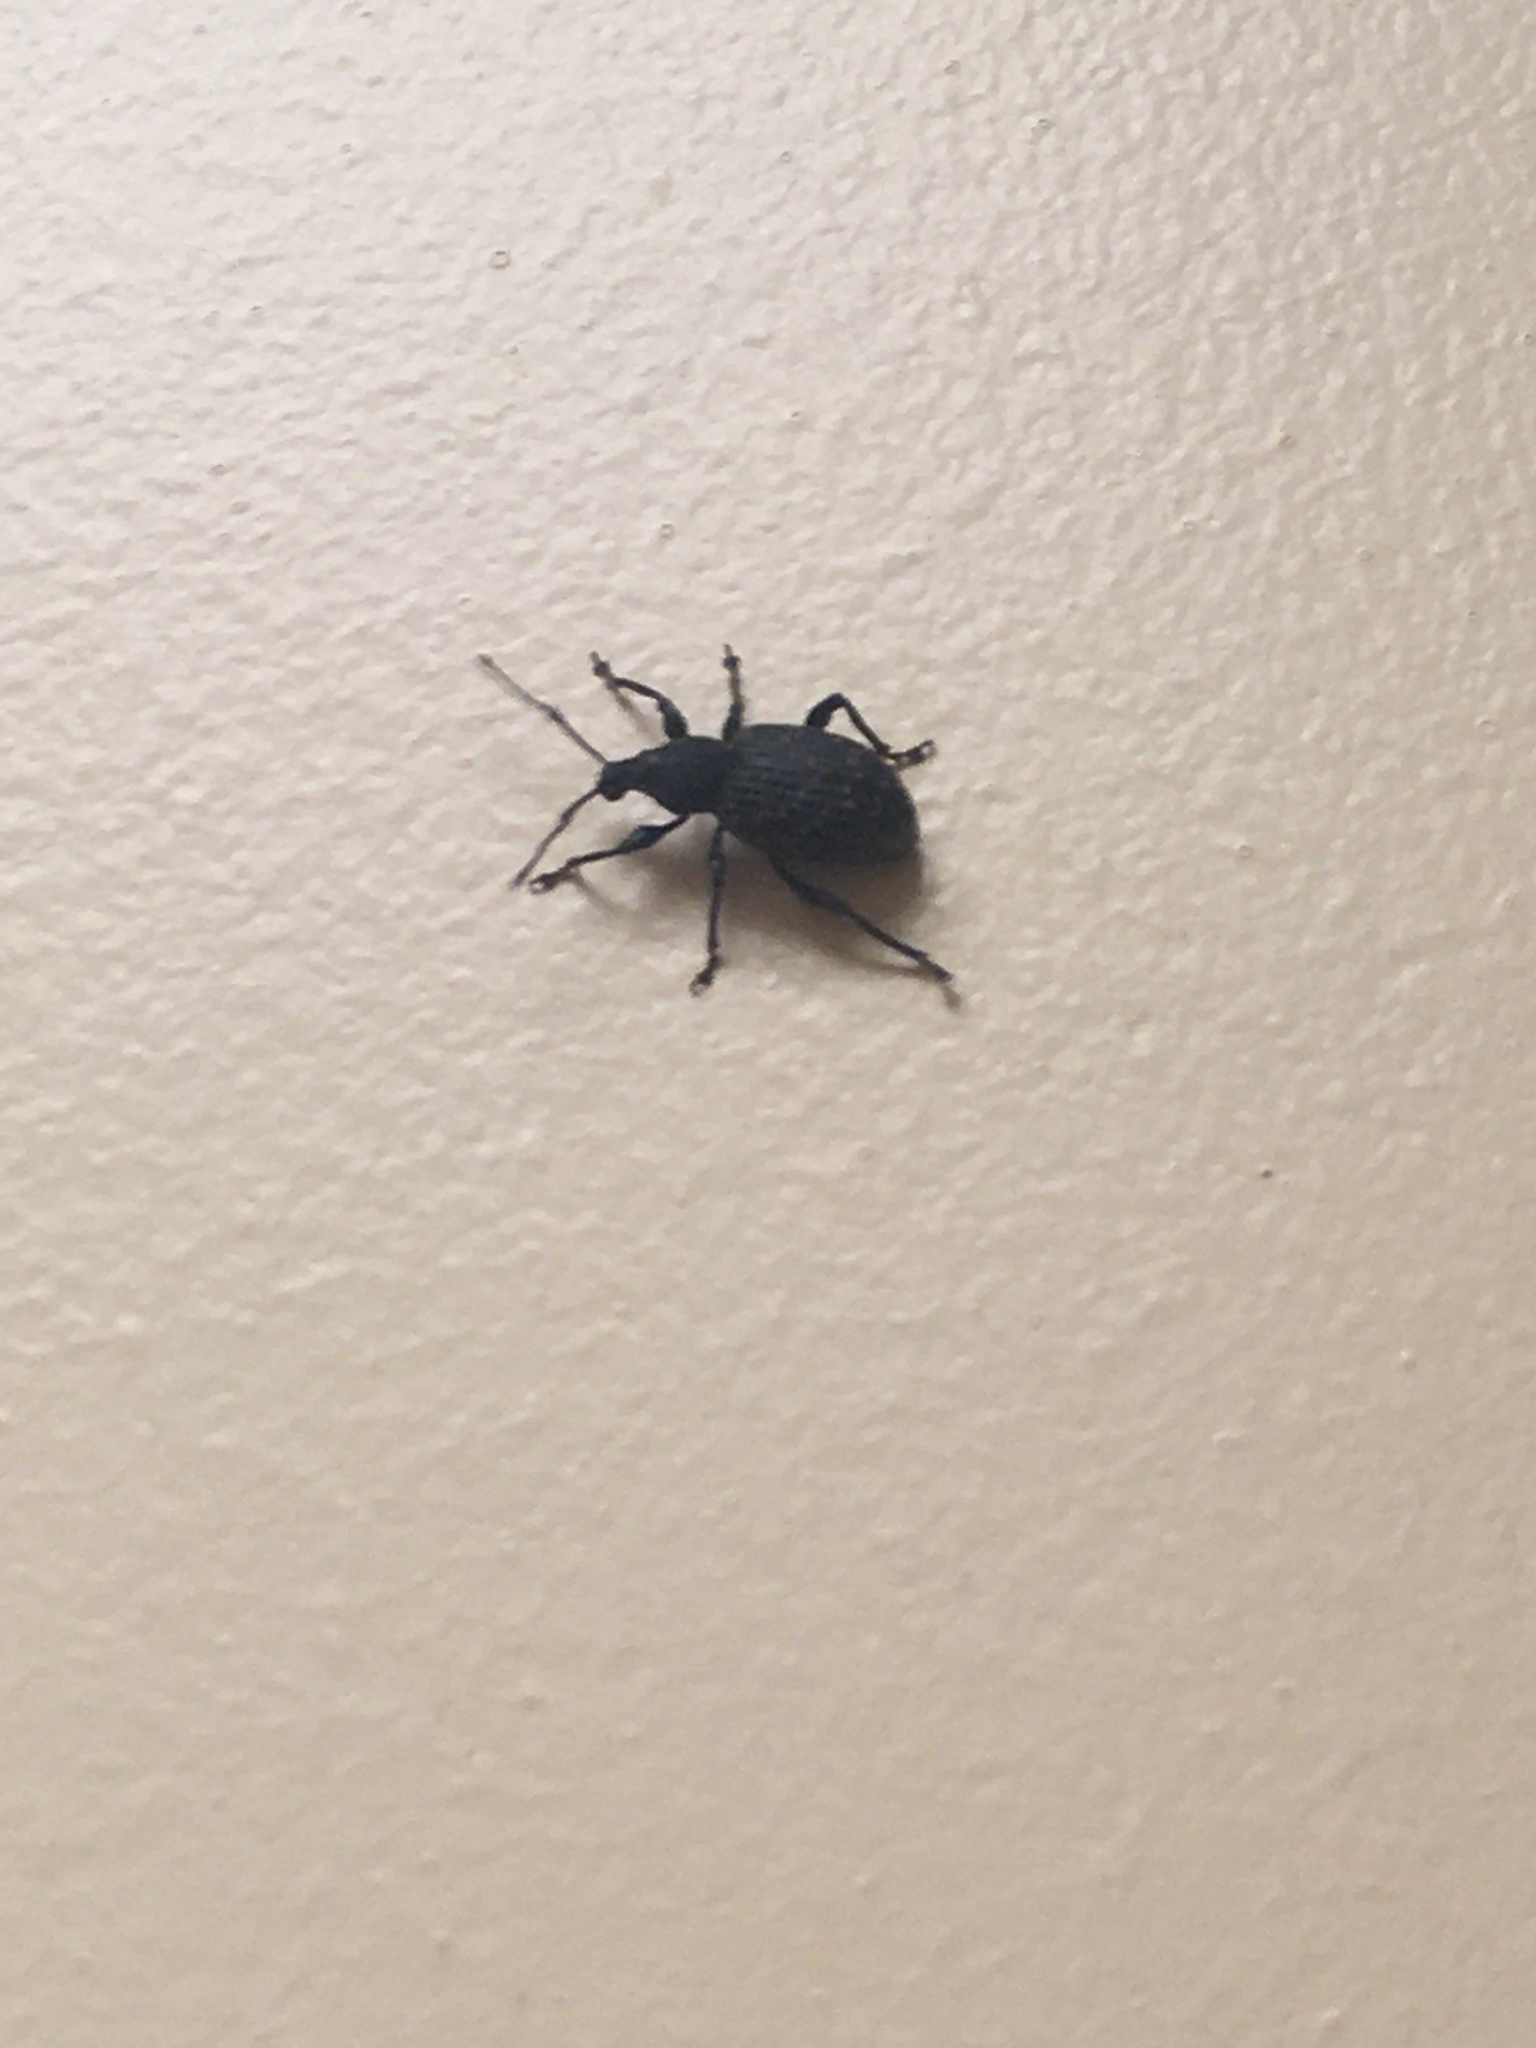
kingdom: Animalia
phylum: Arthropoda
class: Insecta
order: Coleoptera
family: Curculionidae
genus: Otiorhynchus
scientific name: Otiorhynchus sulcatus
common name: Black vine weevil
